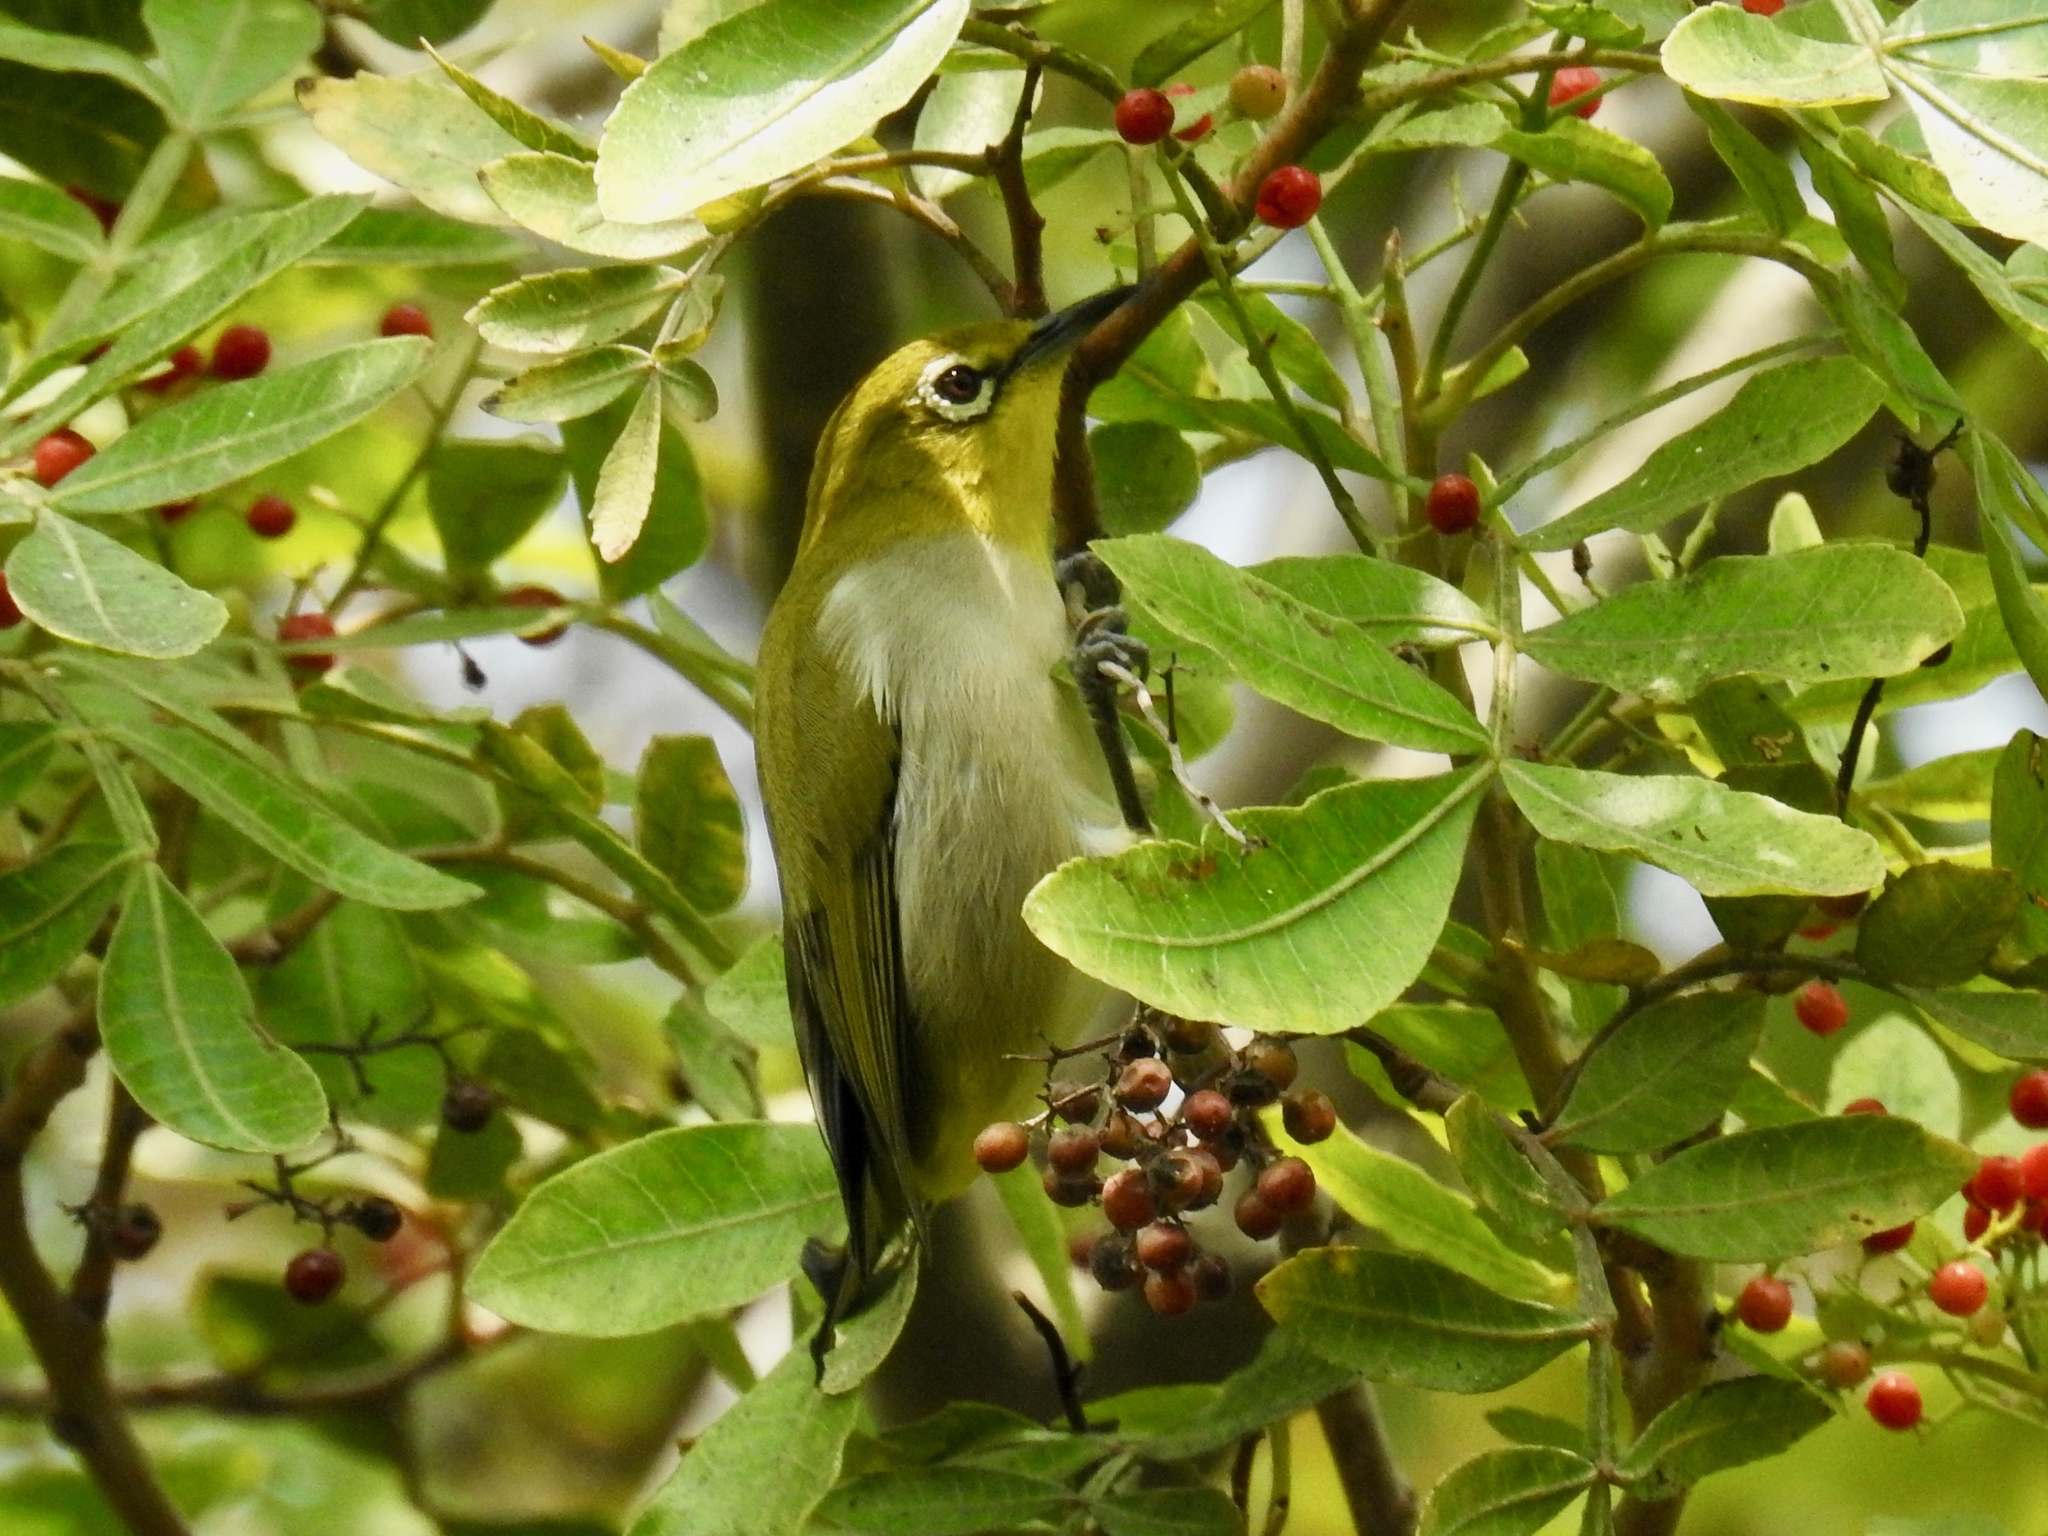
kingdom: Animalia
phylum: Chordata
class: Aves
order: Passeriformes
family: Zosteropidae
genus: Zosterops
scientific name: Zosterops simplex
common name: Swinhoe's white-eye
